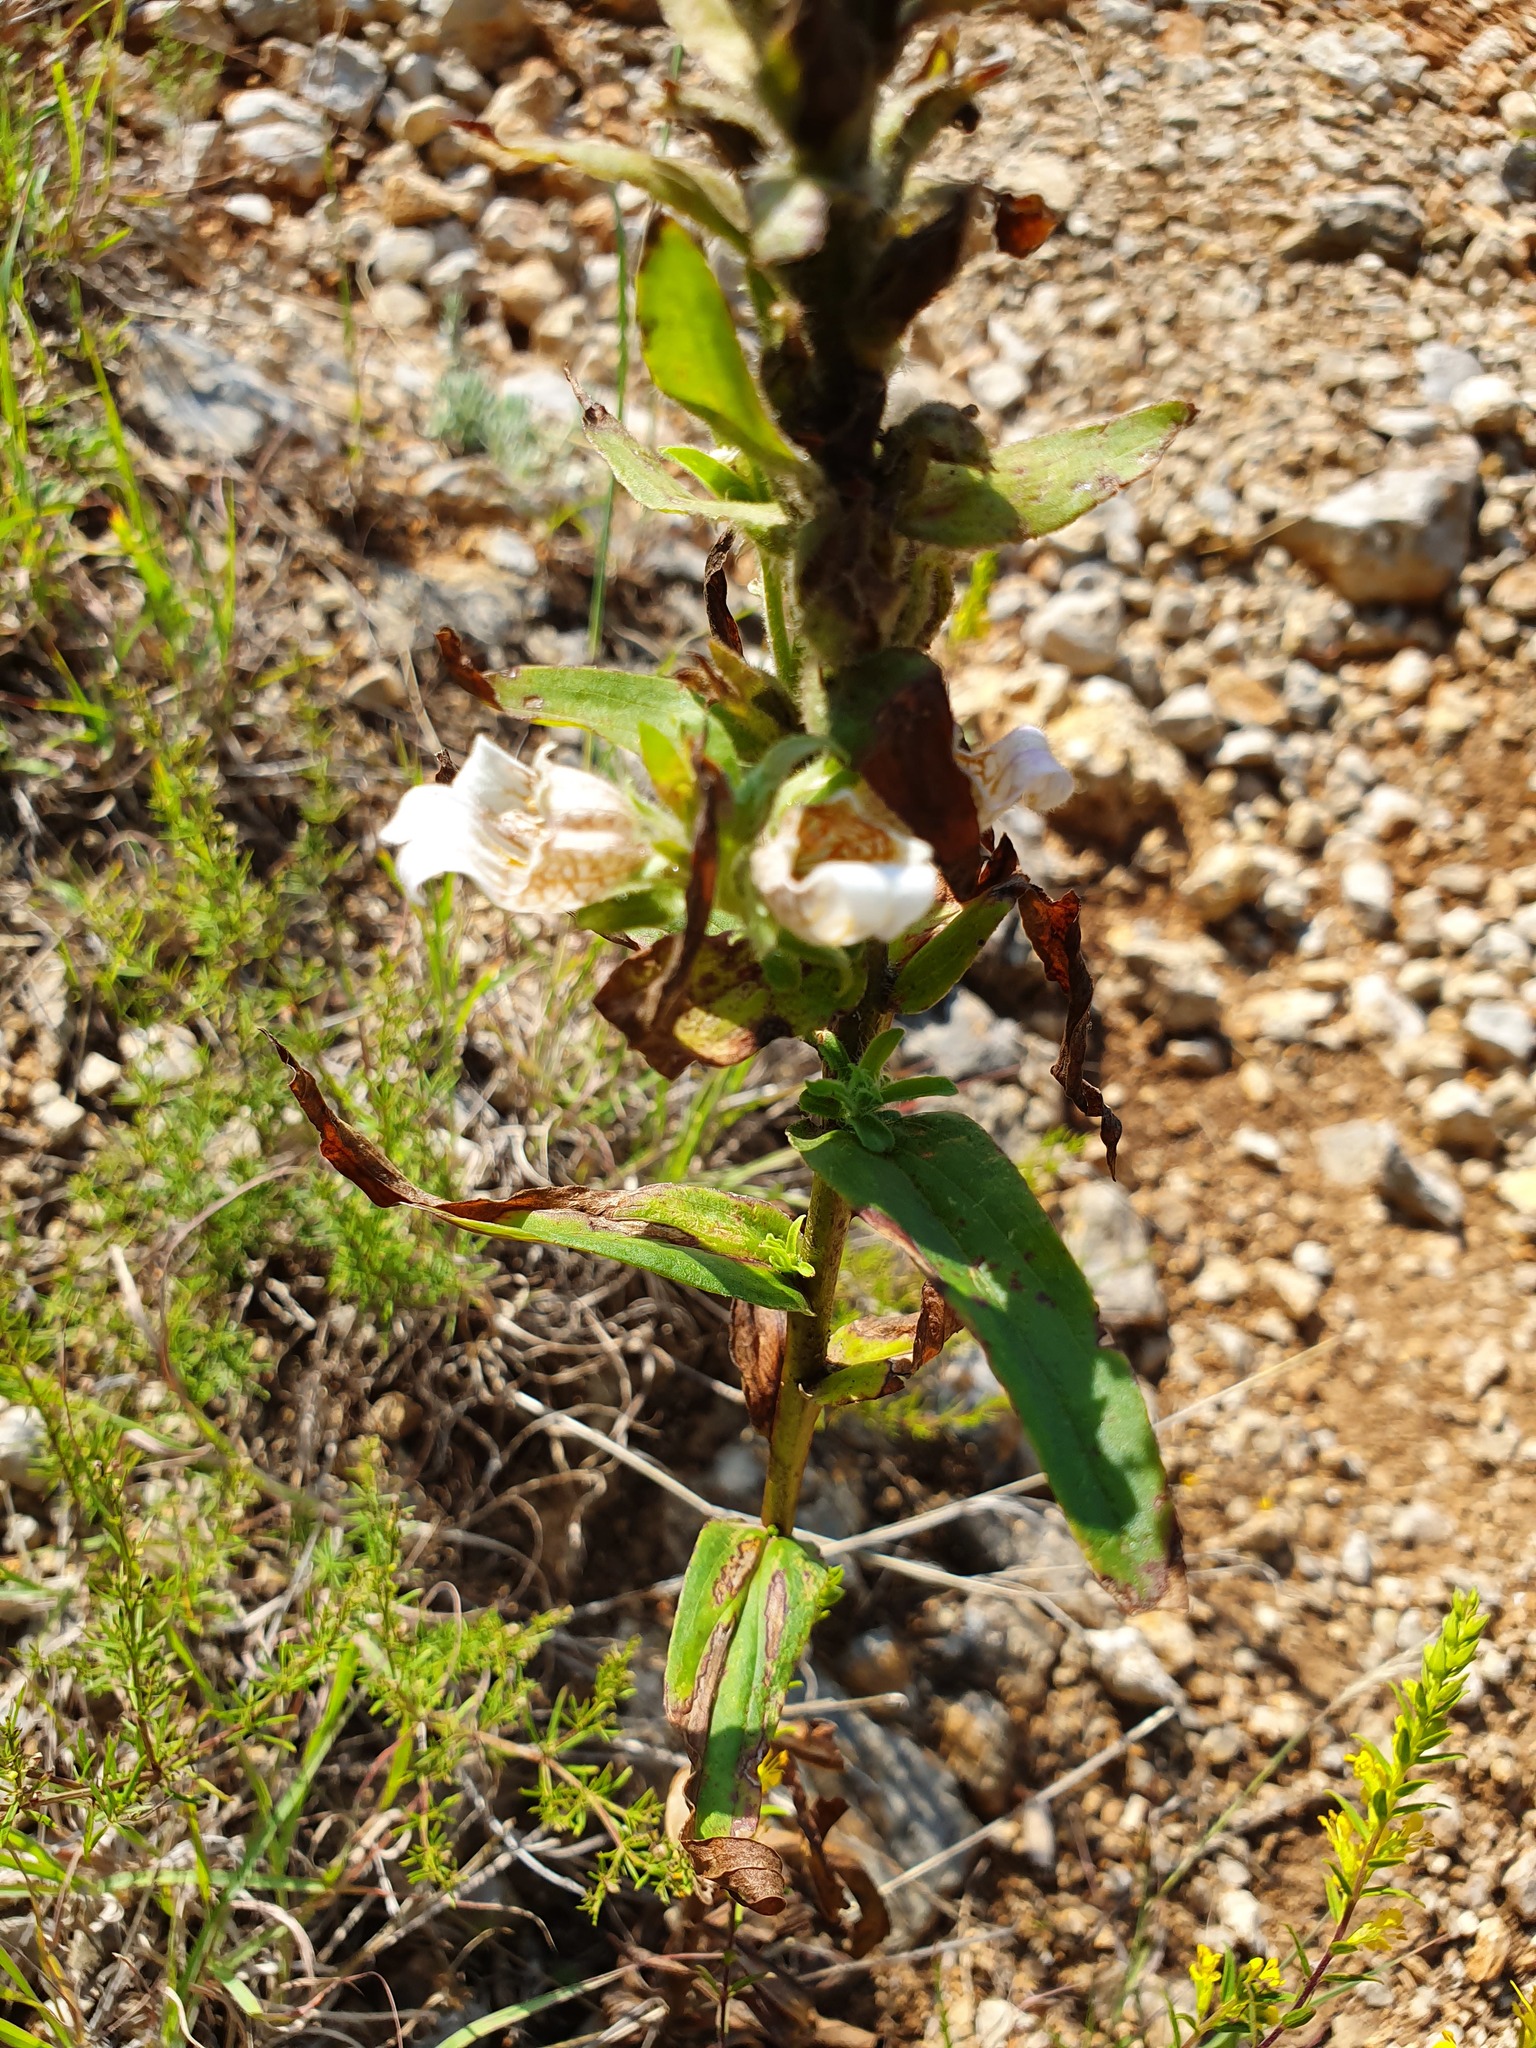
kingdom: Plantae
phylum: Tracheophyta
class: Magnoliopsida
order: Lamiales
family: Plantaginaceae
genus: Digitalis
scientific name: Digitalis lanata
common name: Grecian foxglove
